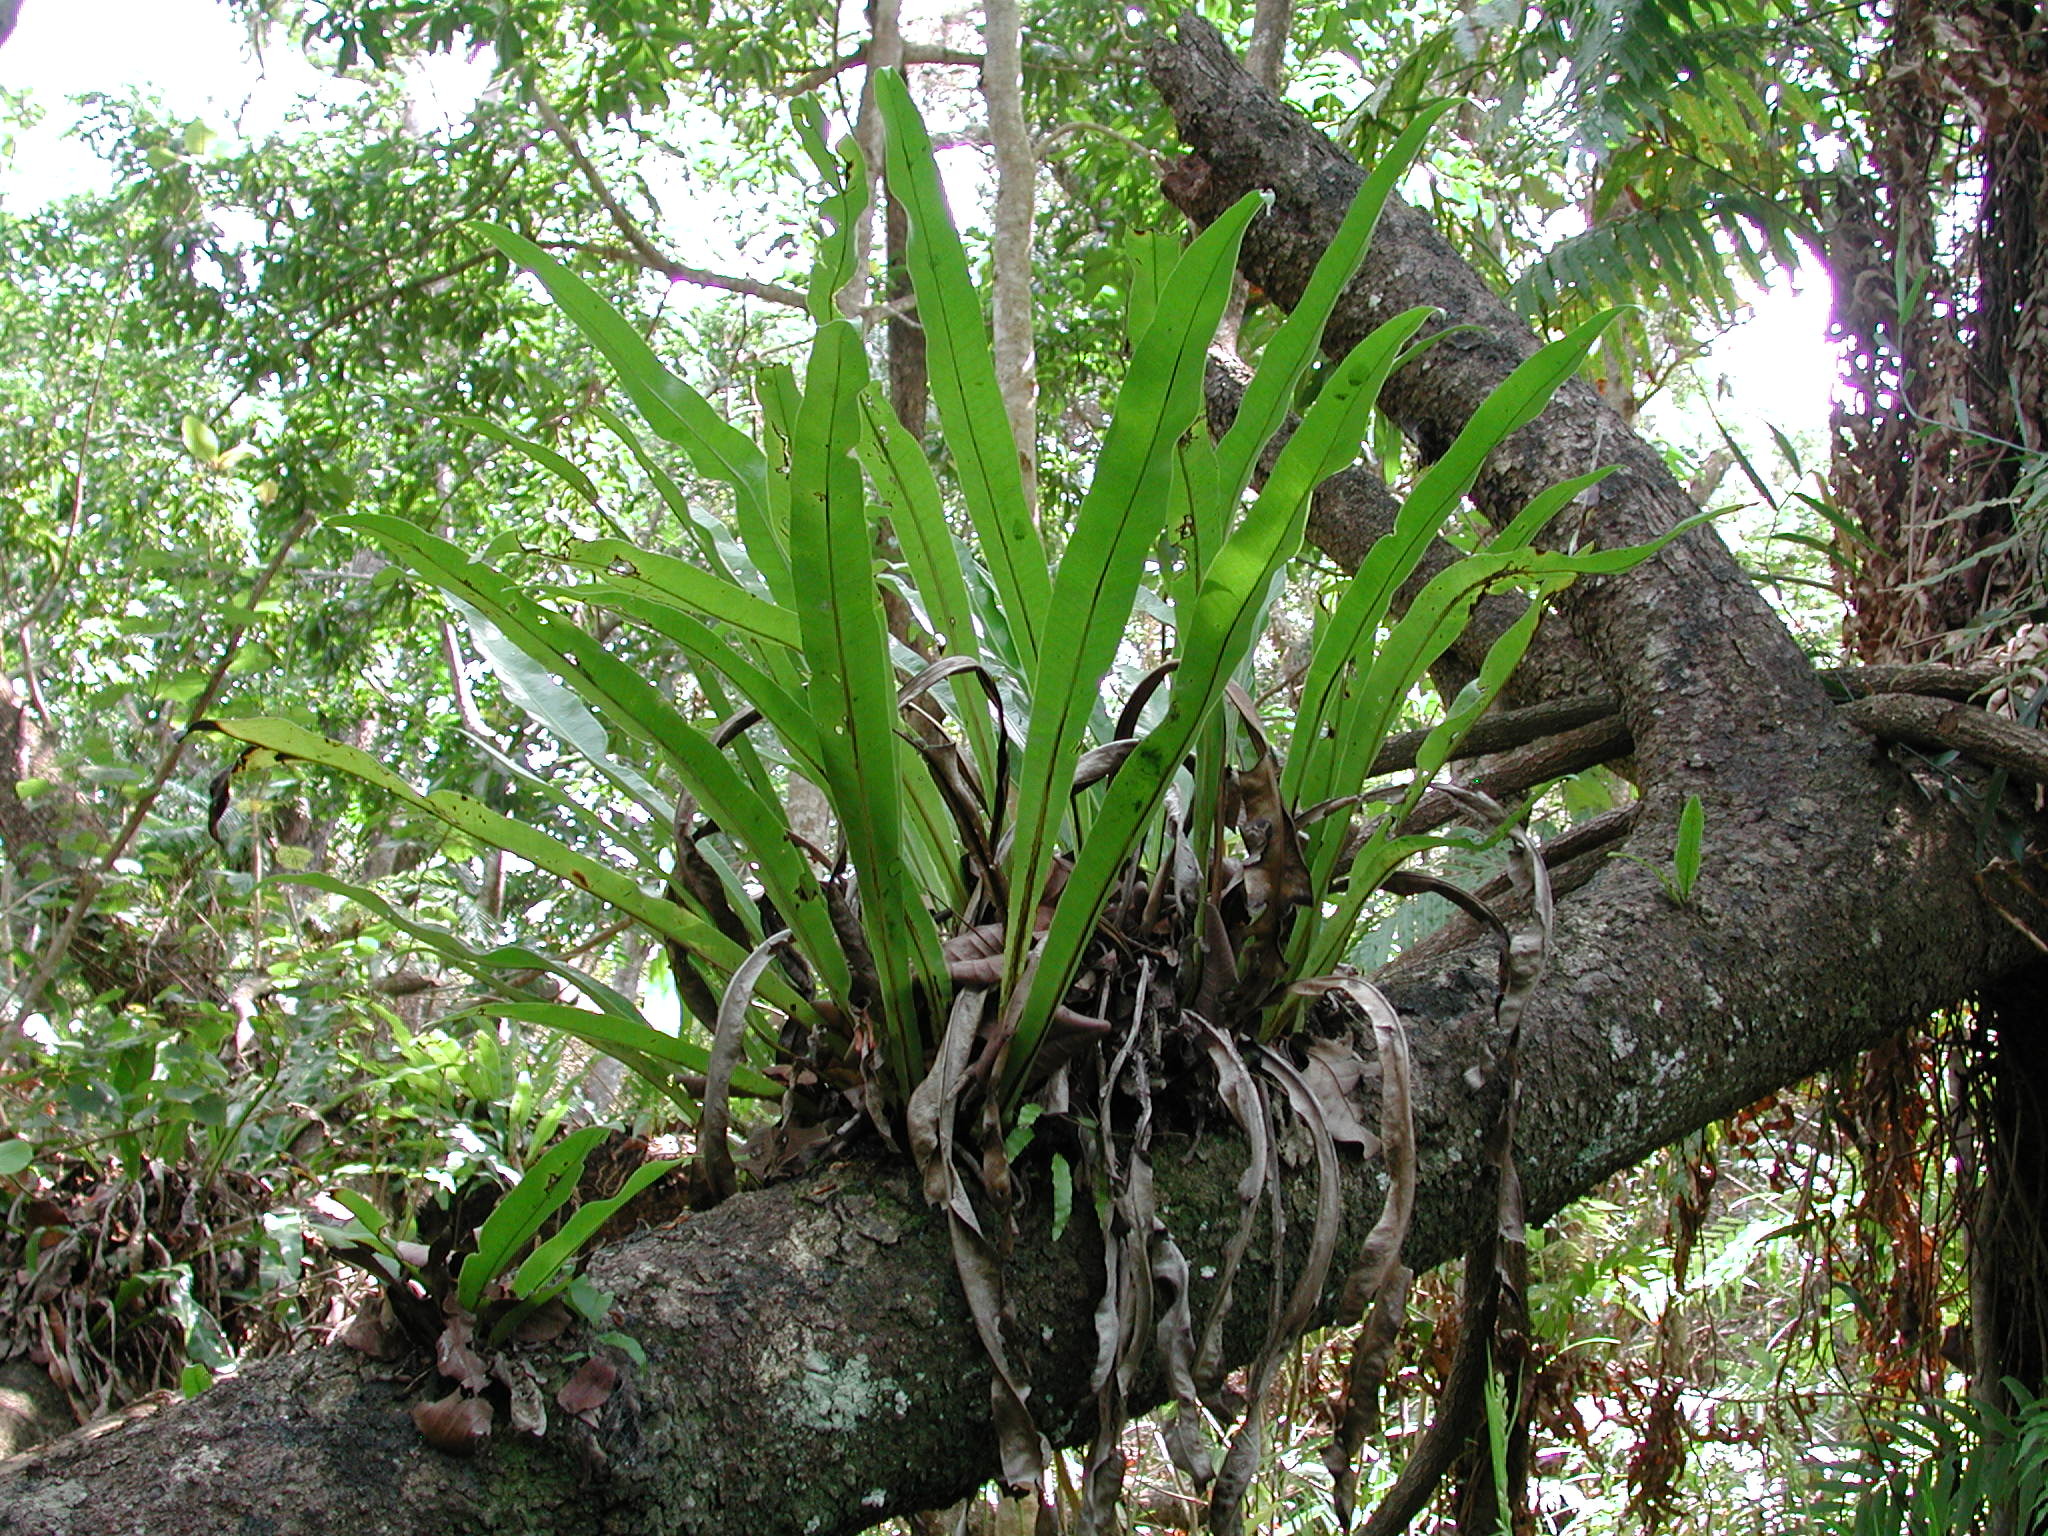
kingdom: Plantae
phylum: Tracheophyta
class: Polypodiopsida
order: Polypodiales
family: Polypodiaceae
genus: Microsorum
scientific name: Microsorum punctatum
